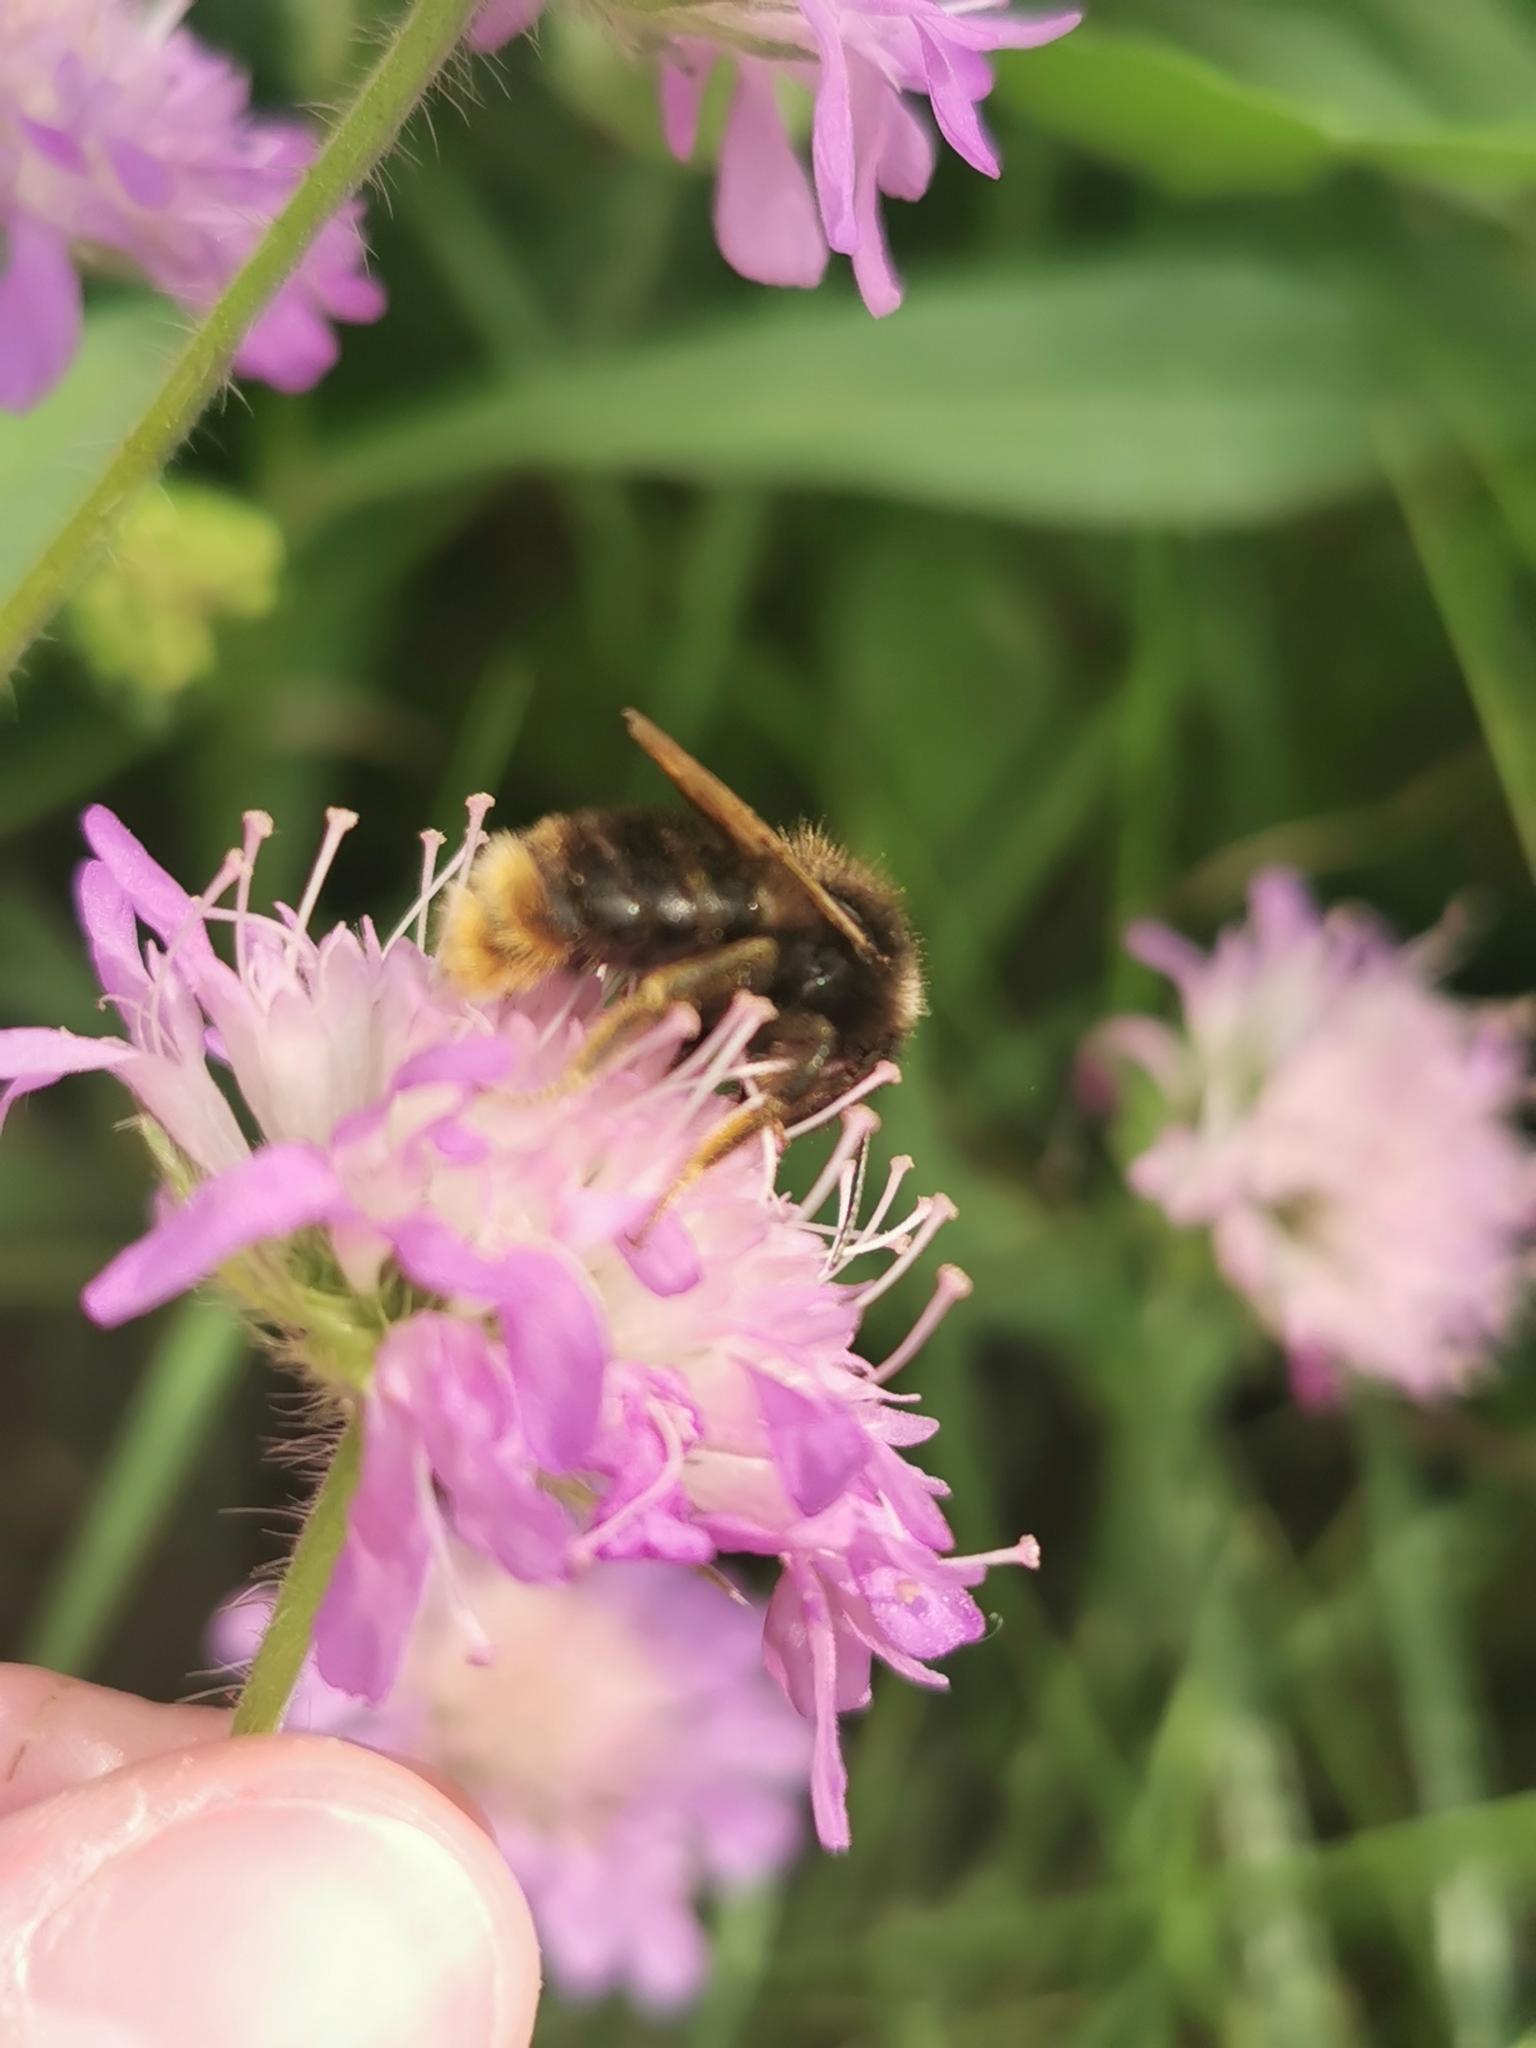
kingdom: Animalia
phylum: Arthropoda
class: Insecta
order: Hymenoptera
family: Apidae
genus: Bombus
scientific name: Bombus rupestris
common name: Hill cuckoo-bee
